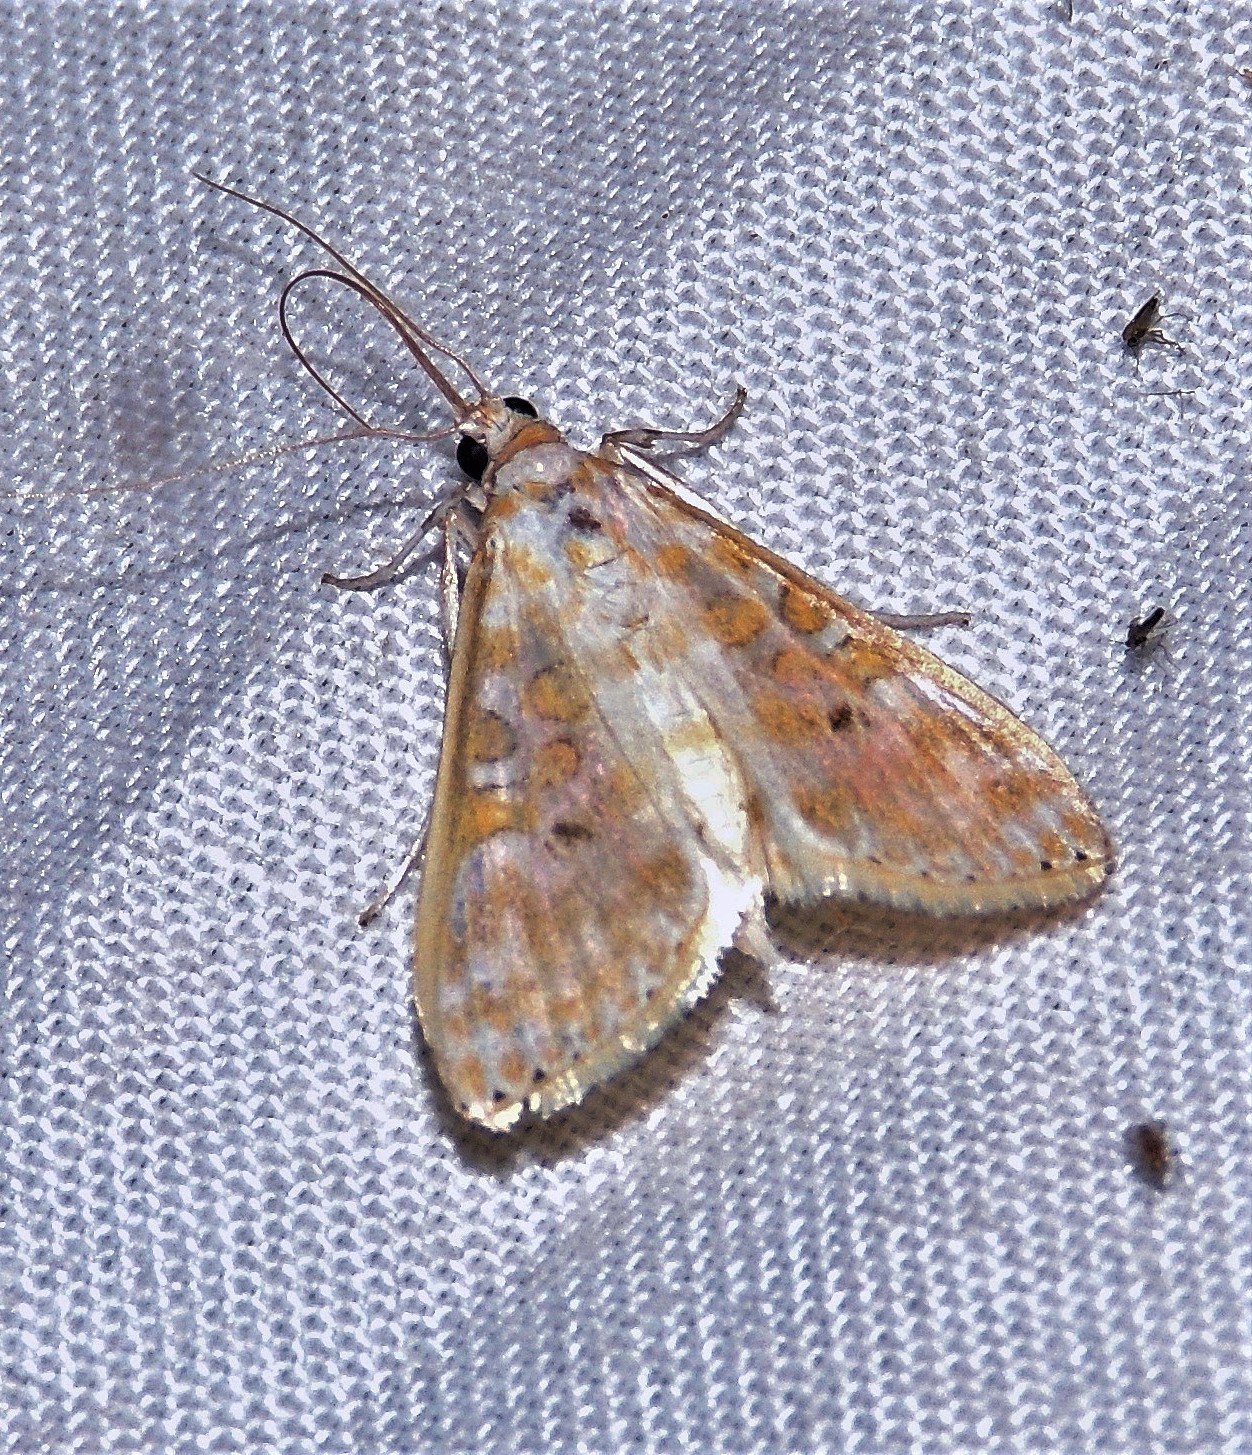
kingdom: Animalia
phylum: Arthropoda
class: Insecta
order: Lepidoptera
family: Crambidae
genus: Leucochroma
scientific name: Leucochroma corope
